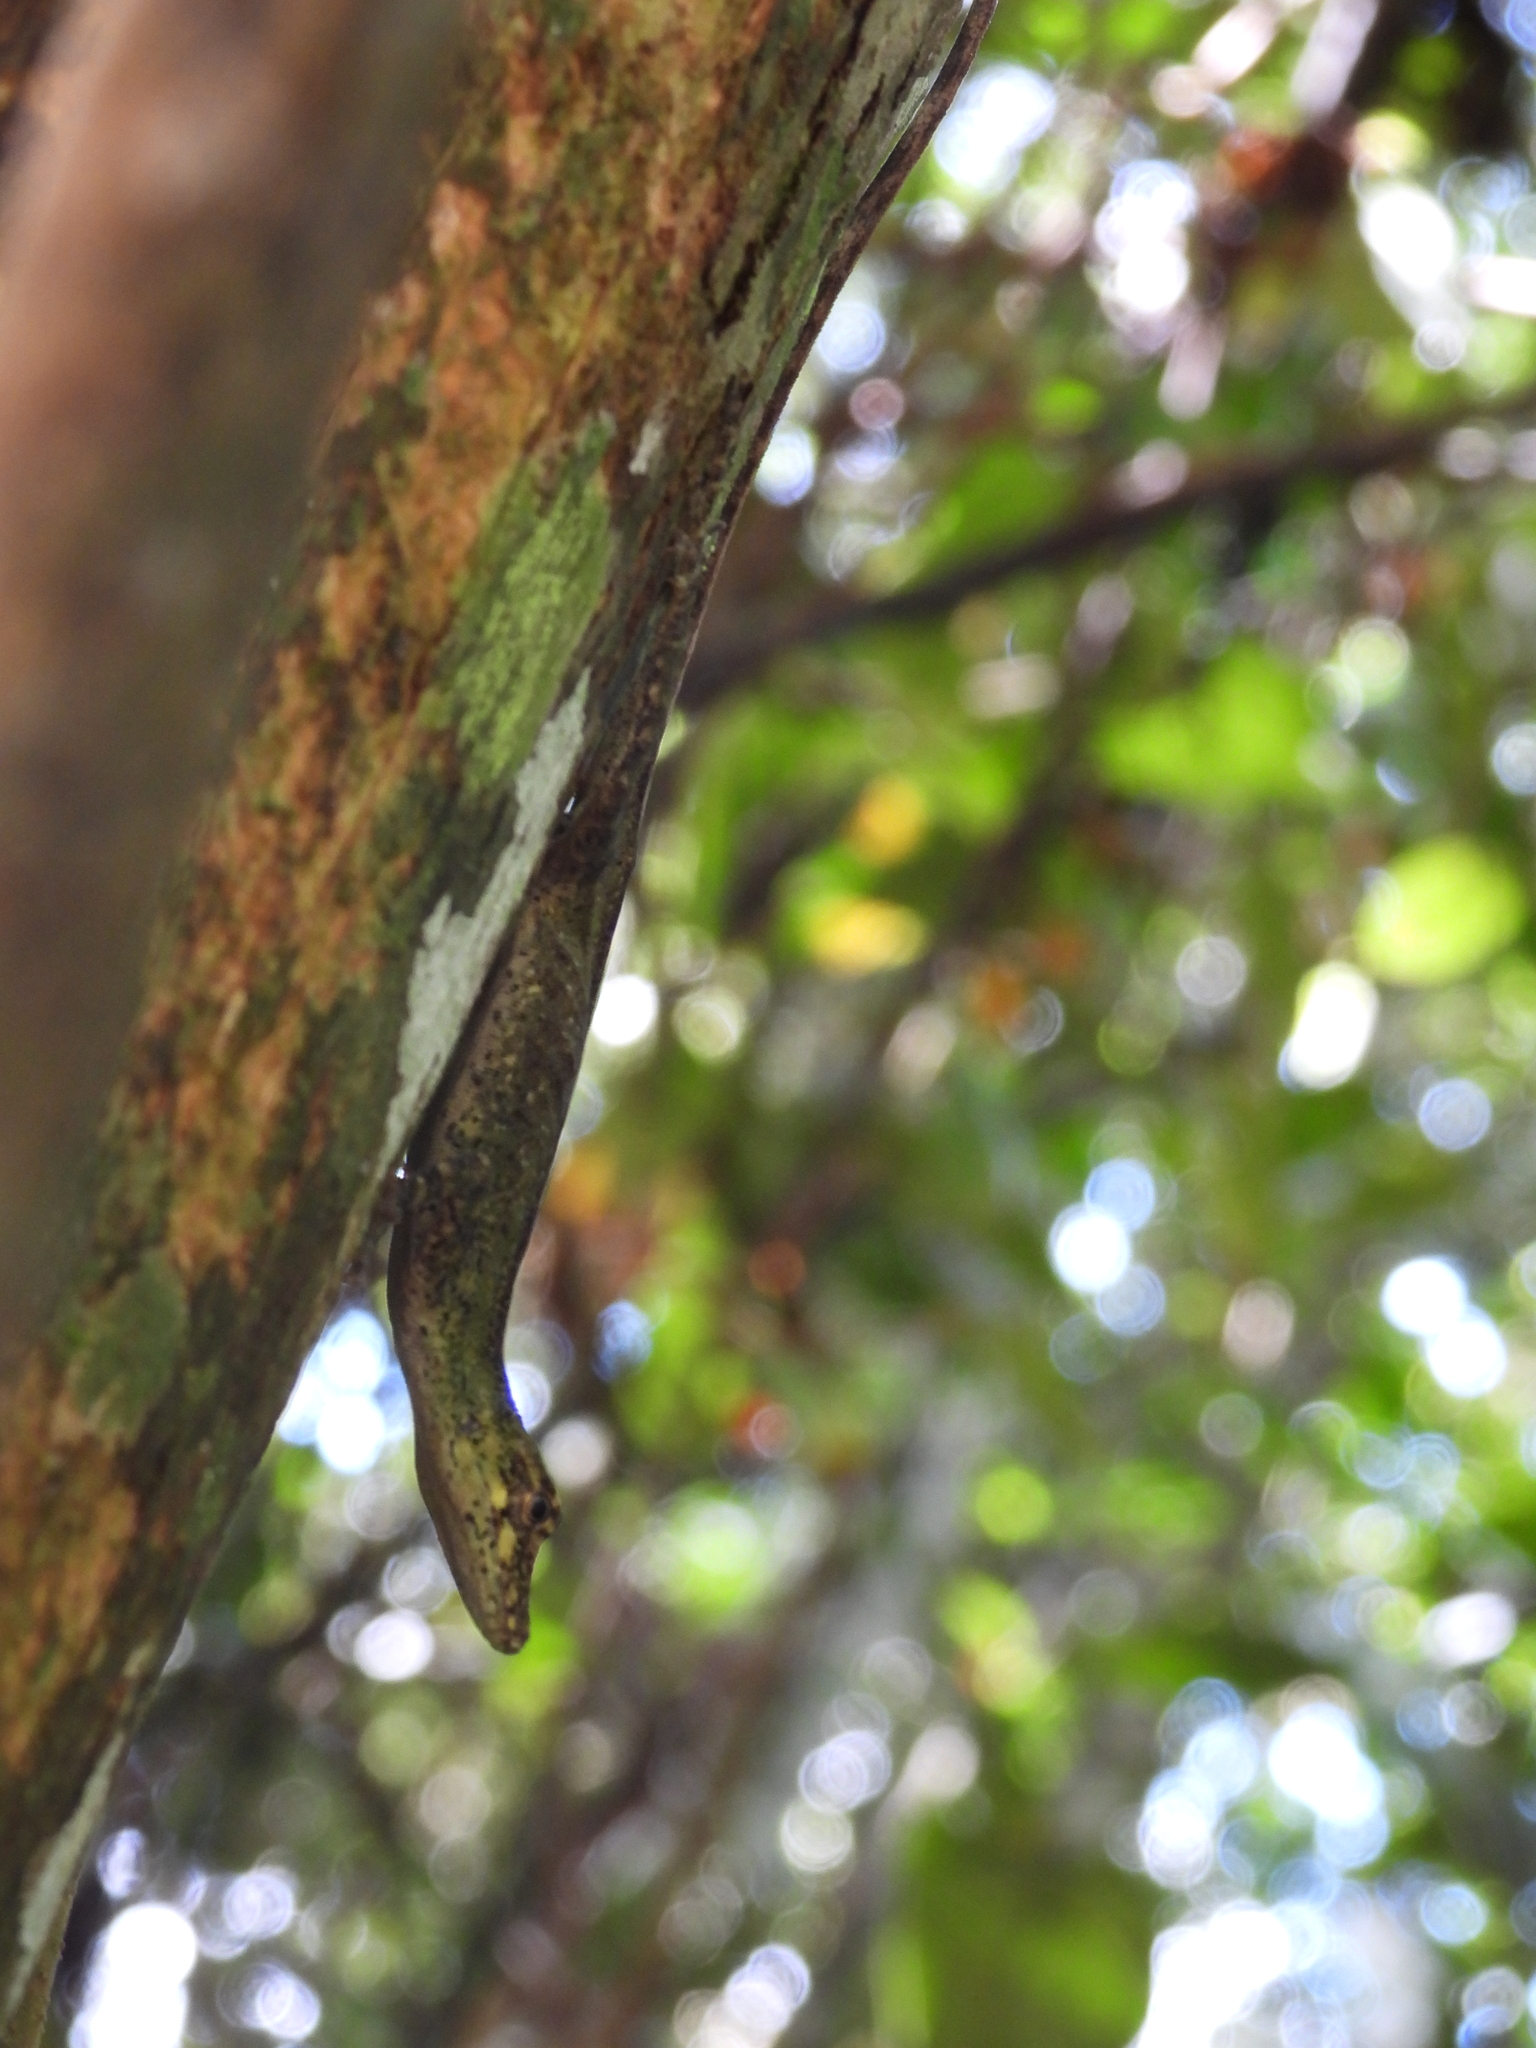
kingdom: Animalia
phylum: Chordata
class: Squamata
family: Dactyloidae
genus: Anolis
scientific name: Anolis huilae
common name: Huila anole
